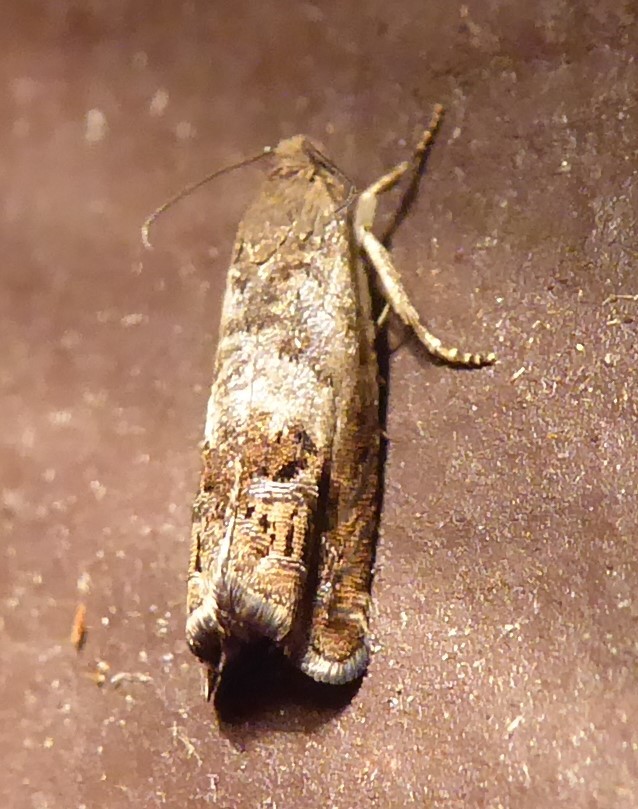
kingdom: Animalia
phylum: Arthropoda
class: Insecta
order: Lepidoptera
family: Tortricidae
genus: Cydia
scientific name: Cydia succedana
